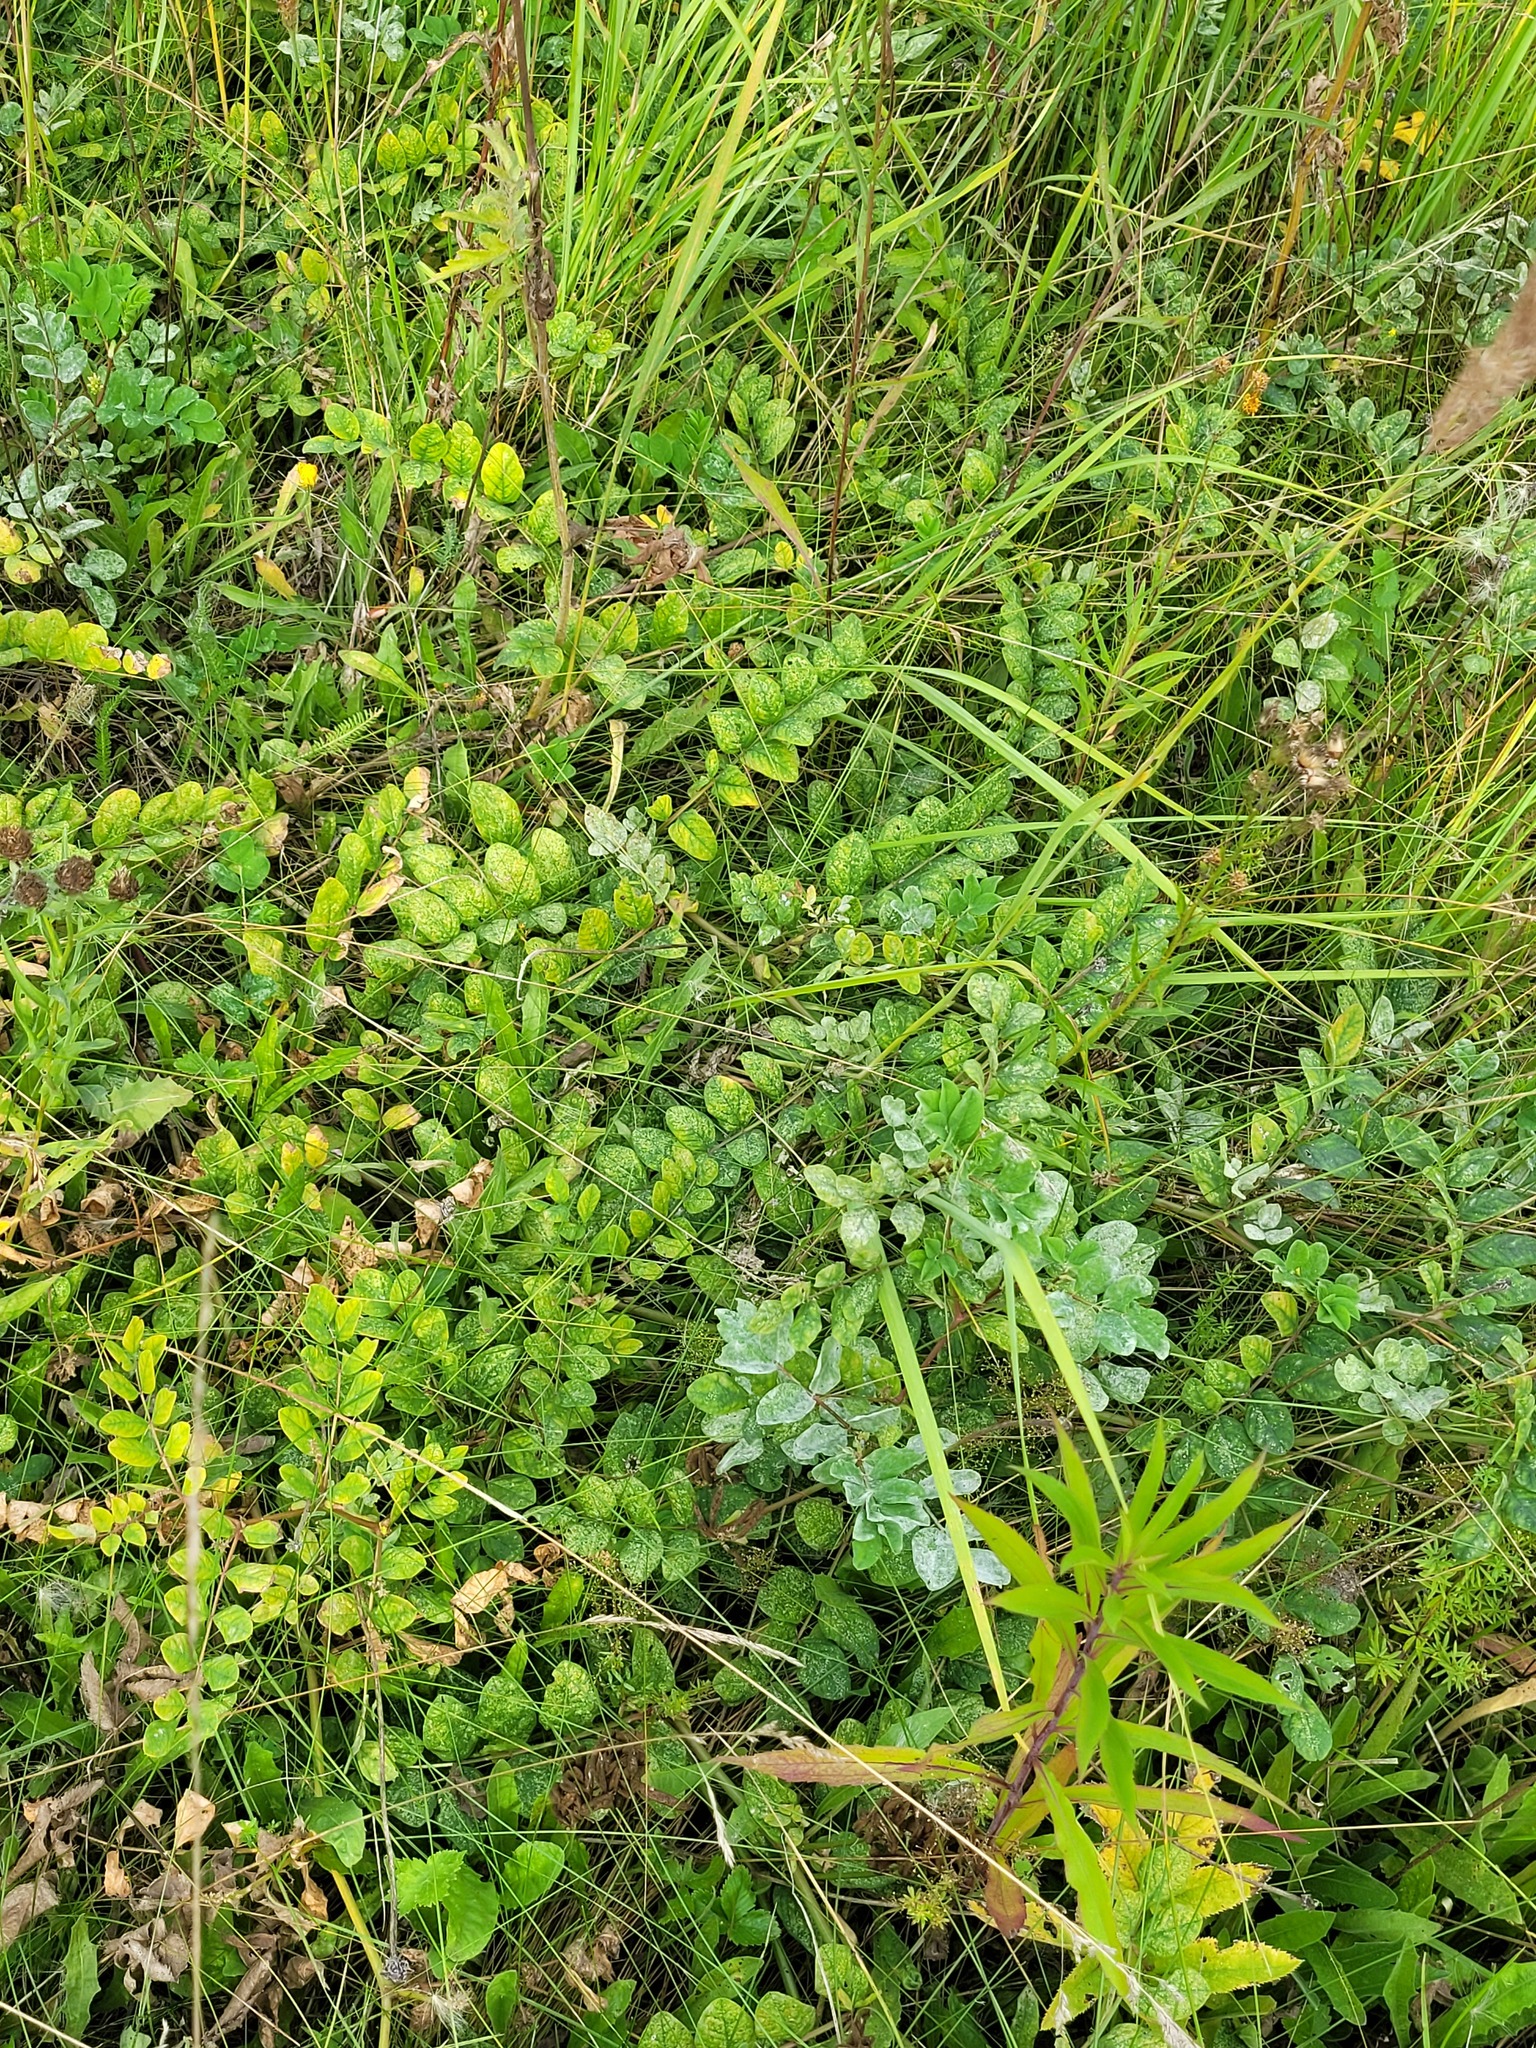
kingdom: Plantae
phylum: Tracheophyta
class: Magnoliopsida
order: Fabales
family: Fabaceae
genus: Astragalus
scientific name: Astragalus glycyphyllos
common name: Wild liquorice
